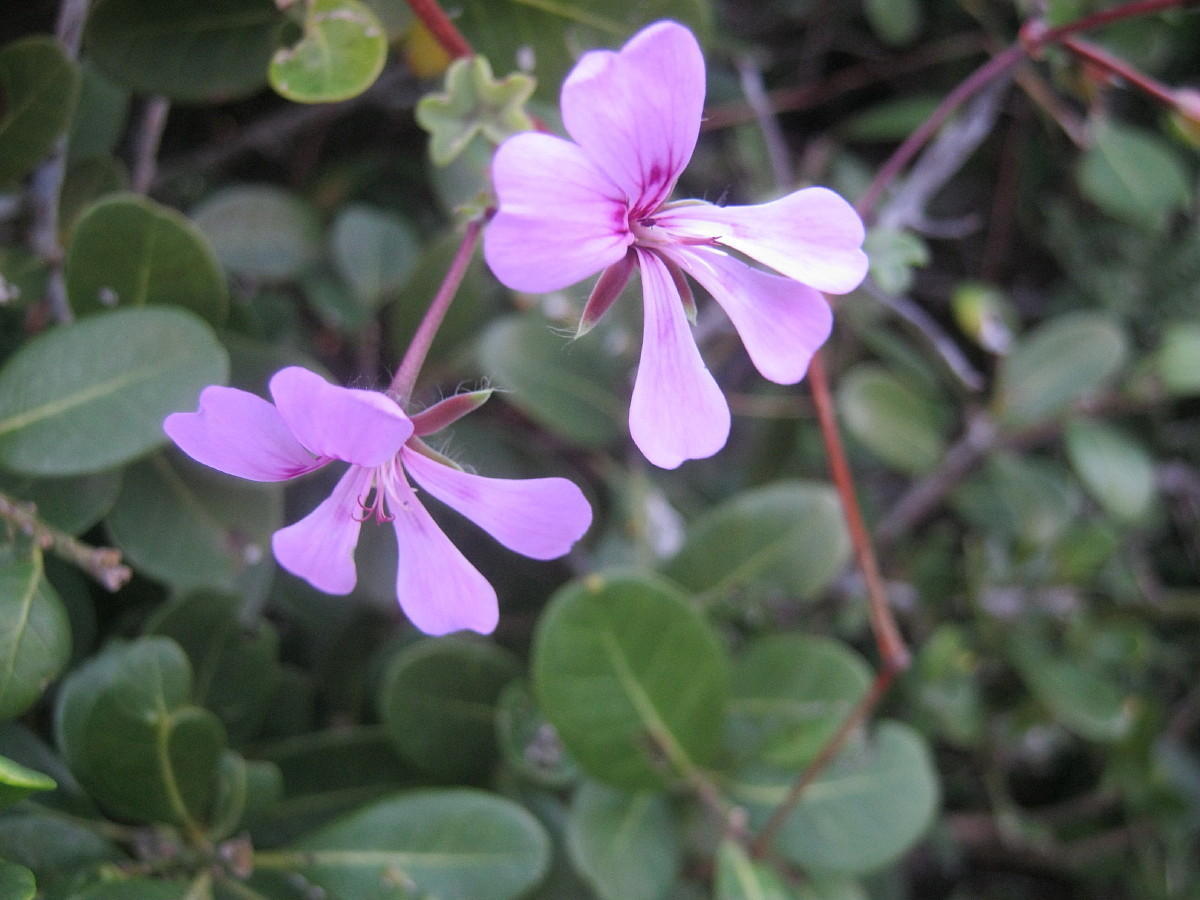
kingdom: Plantae
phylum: Tracheophyta
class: Magnoliopsida
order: Geraniales
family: Geraniaceae
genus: Pelargonium
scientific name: Pelargonium peltatum
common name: Ivyleaf geranium
